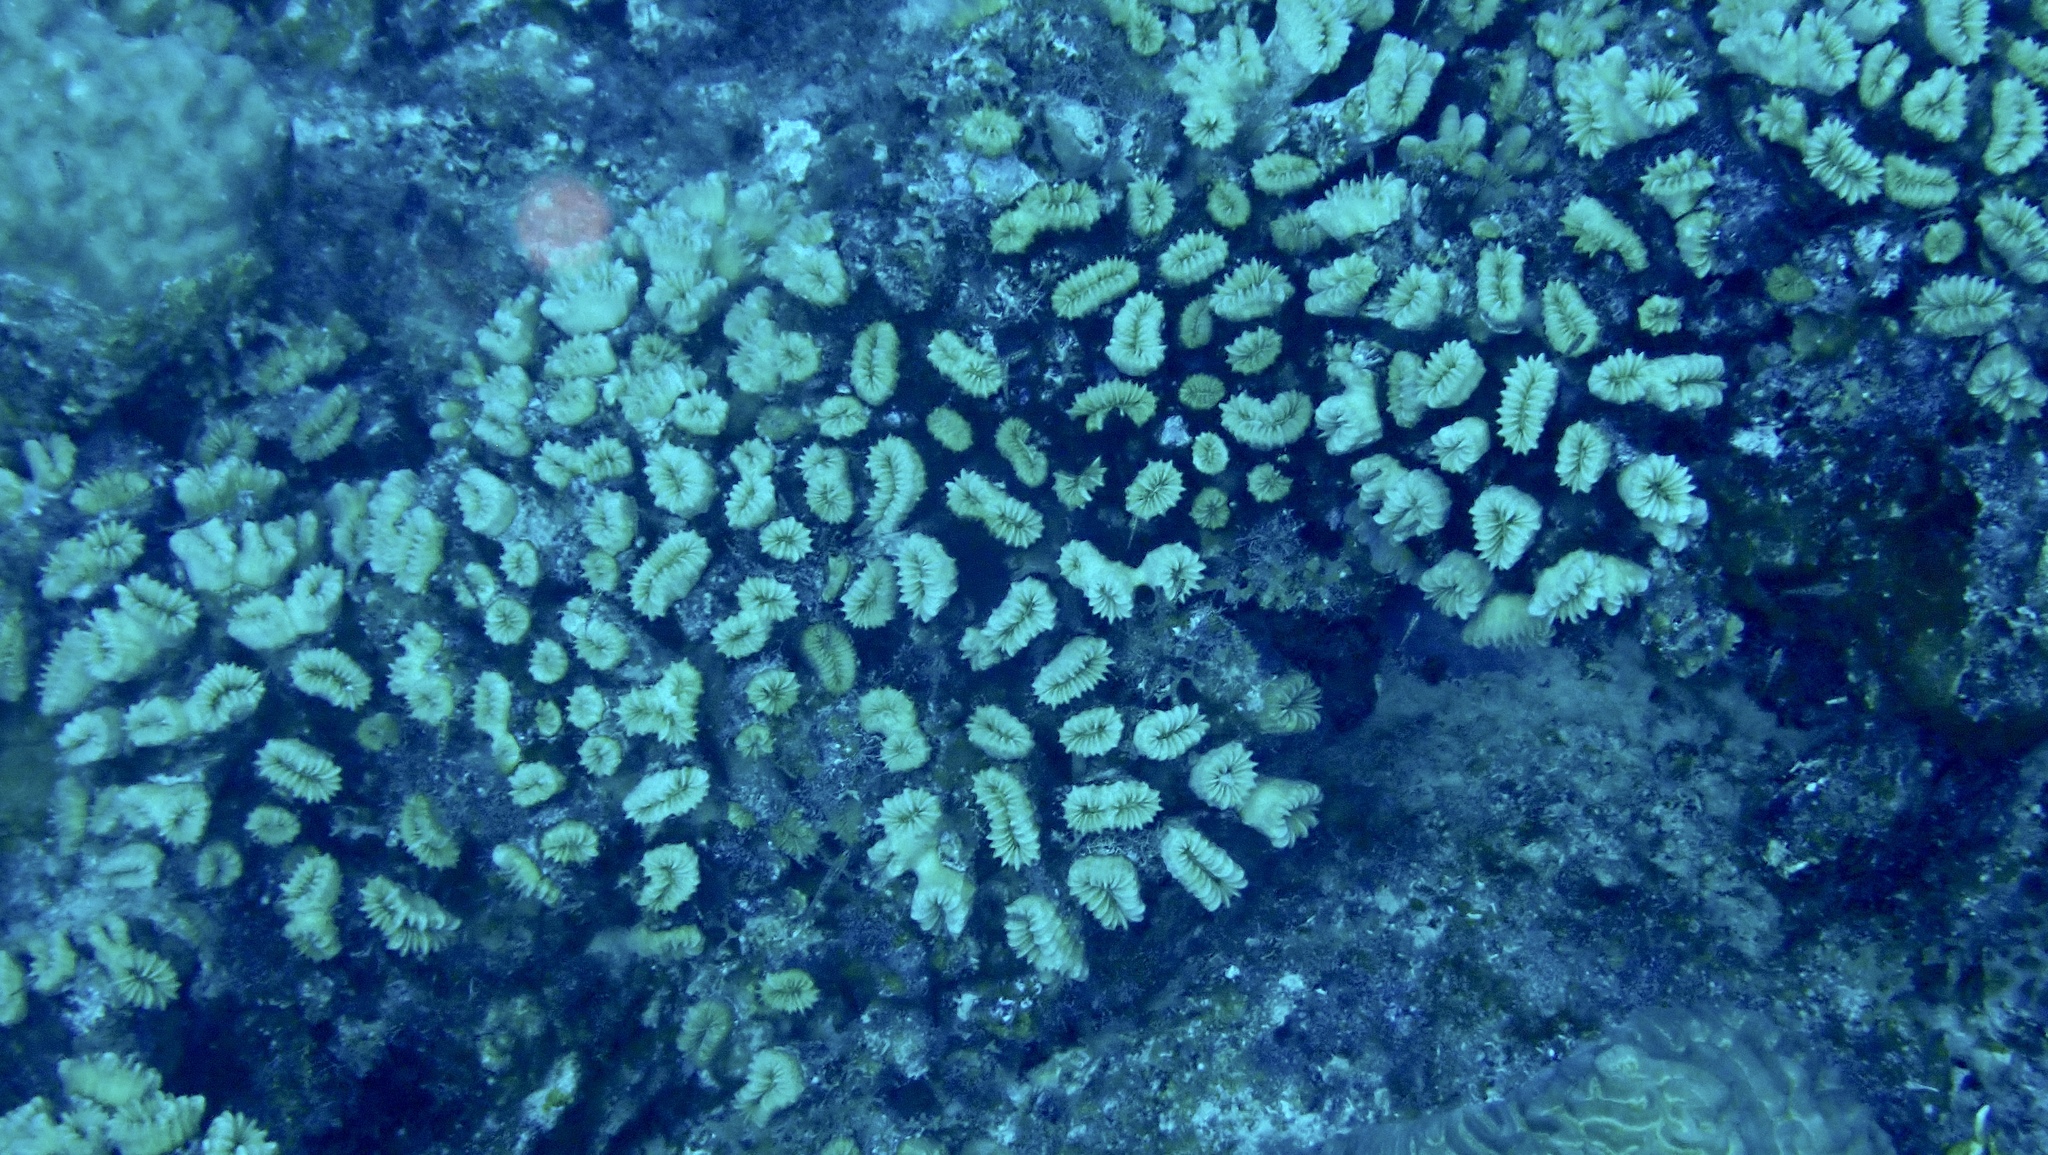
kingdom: Animalia
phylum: Cnidaria
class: Anthozoa
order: Scleractinia
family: Meandrinidae
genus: Eusmilia
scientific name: Eusmilia fastigiata
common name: Smooth flower coral
